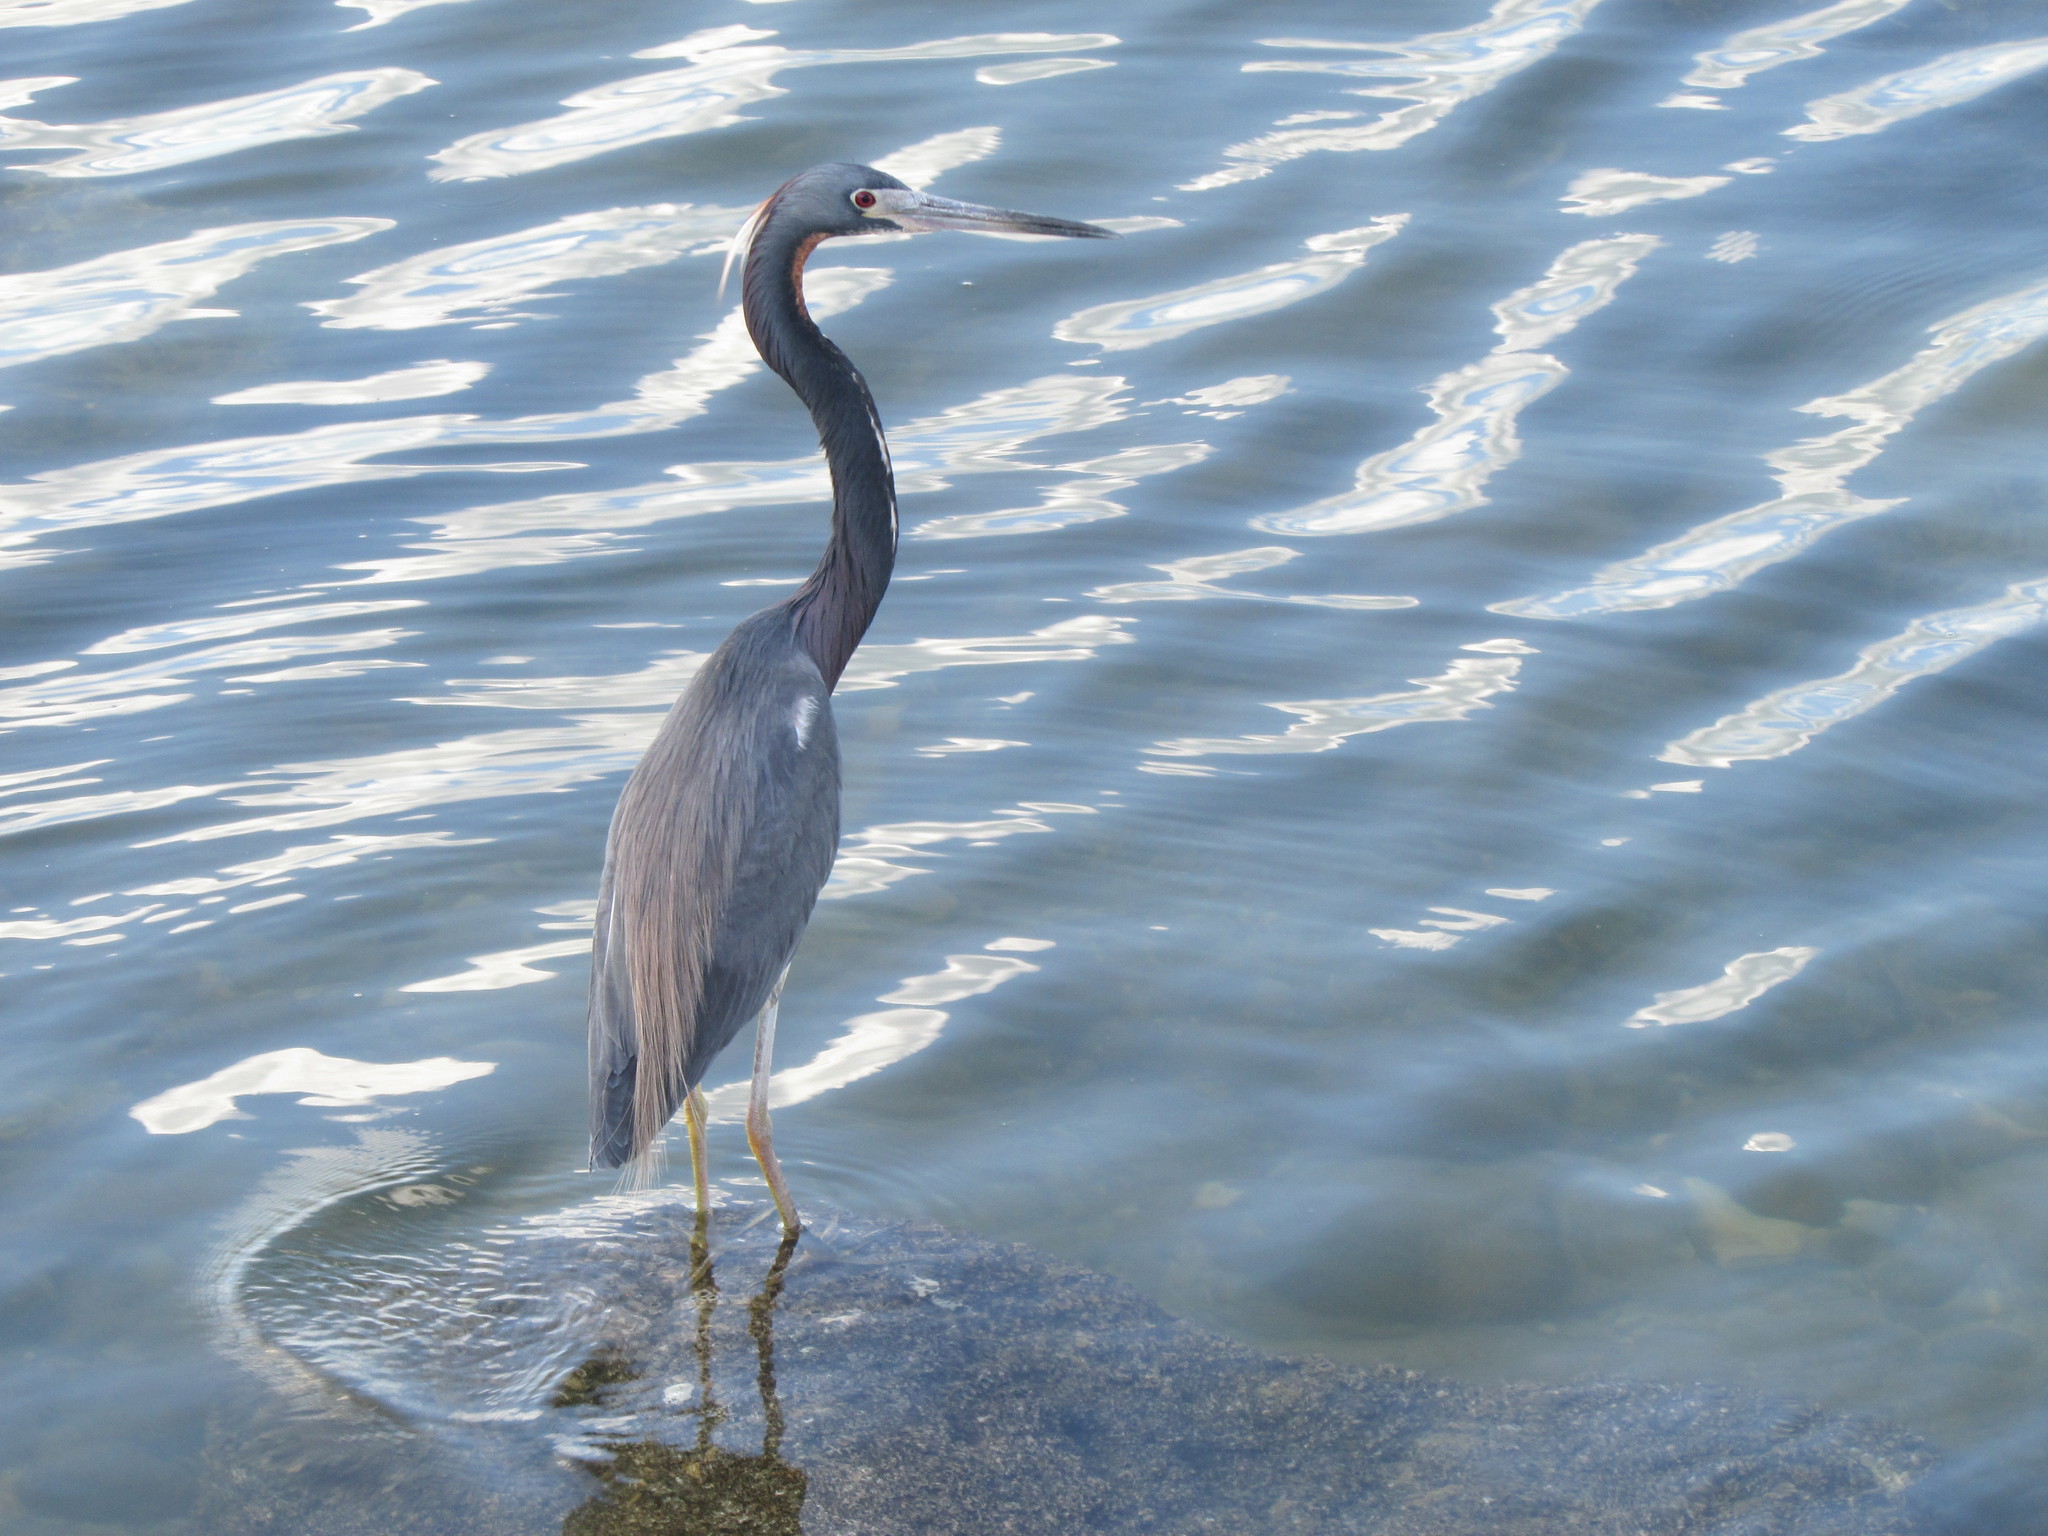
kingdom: Animalia
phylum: Chordata
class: Aves
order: Pelecaniformes
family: Ardeidae
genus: Egretta
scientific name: Egretta tricolor
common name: Tricolored heron
